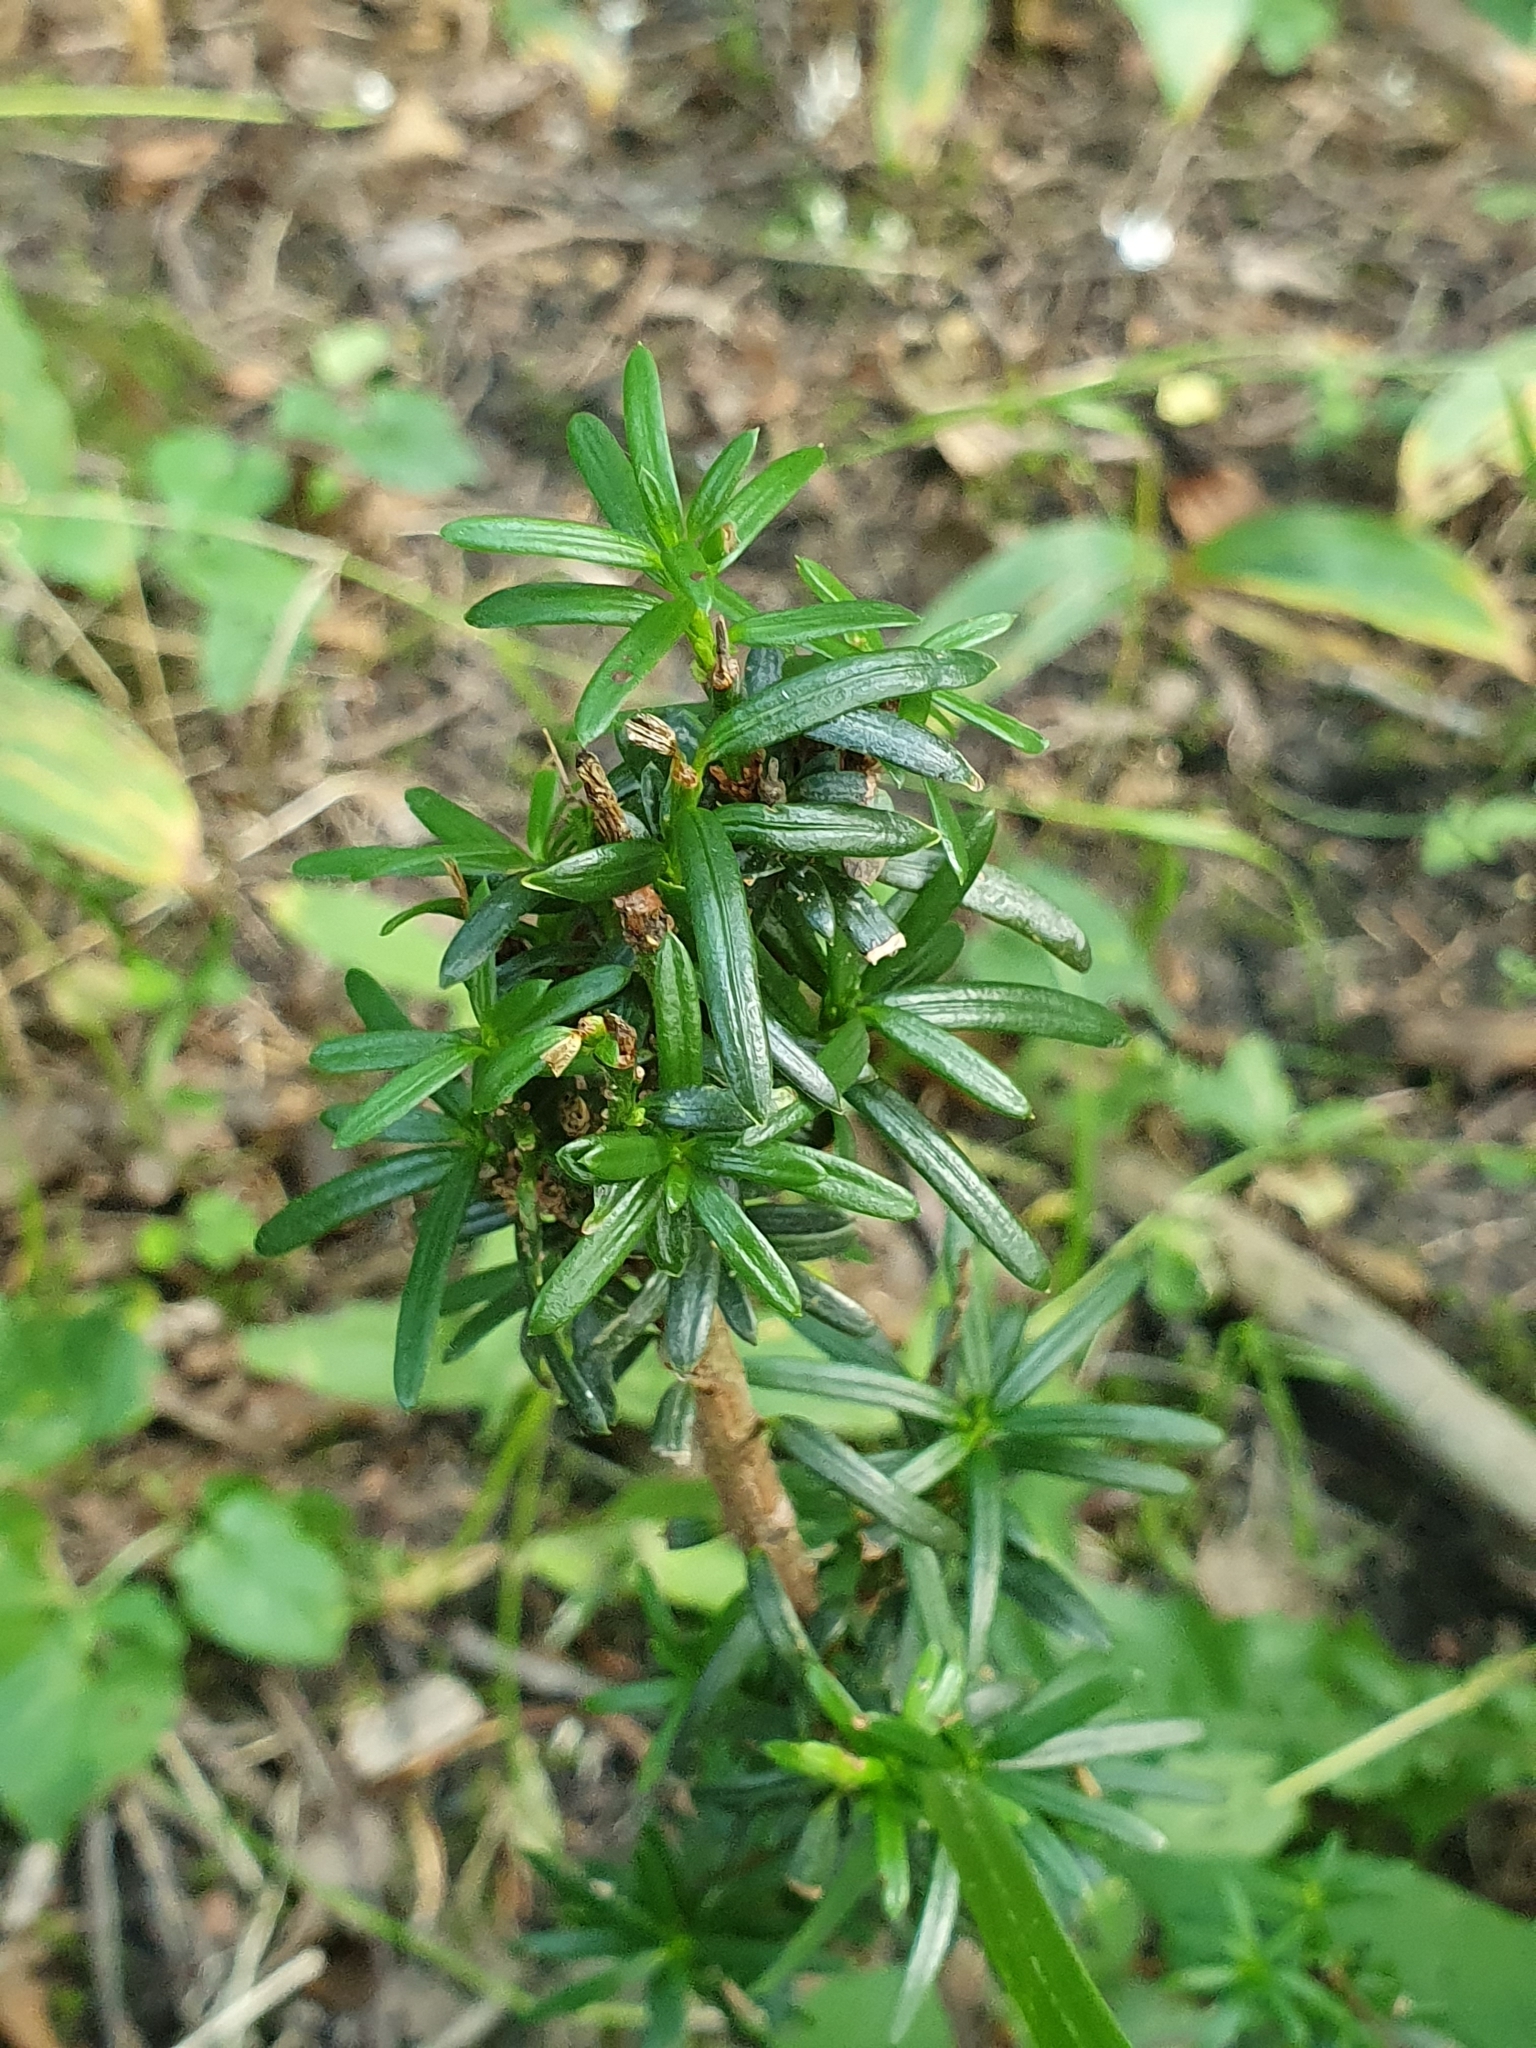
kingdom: Plantae
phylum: Tracheophyta
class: Pinopsida
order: Pinales
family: Taxaceae
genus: Taxus
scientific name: Taxus baccata
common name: Yew
